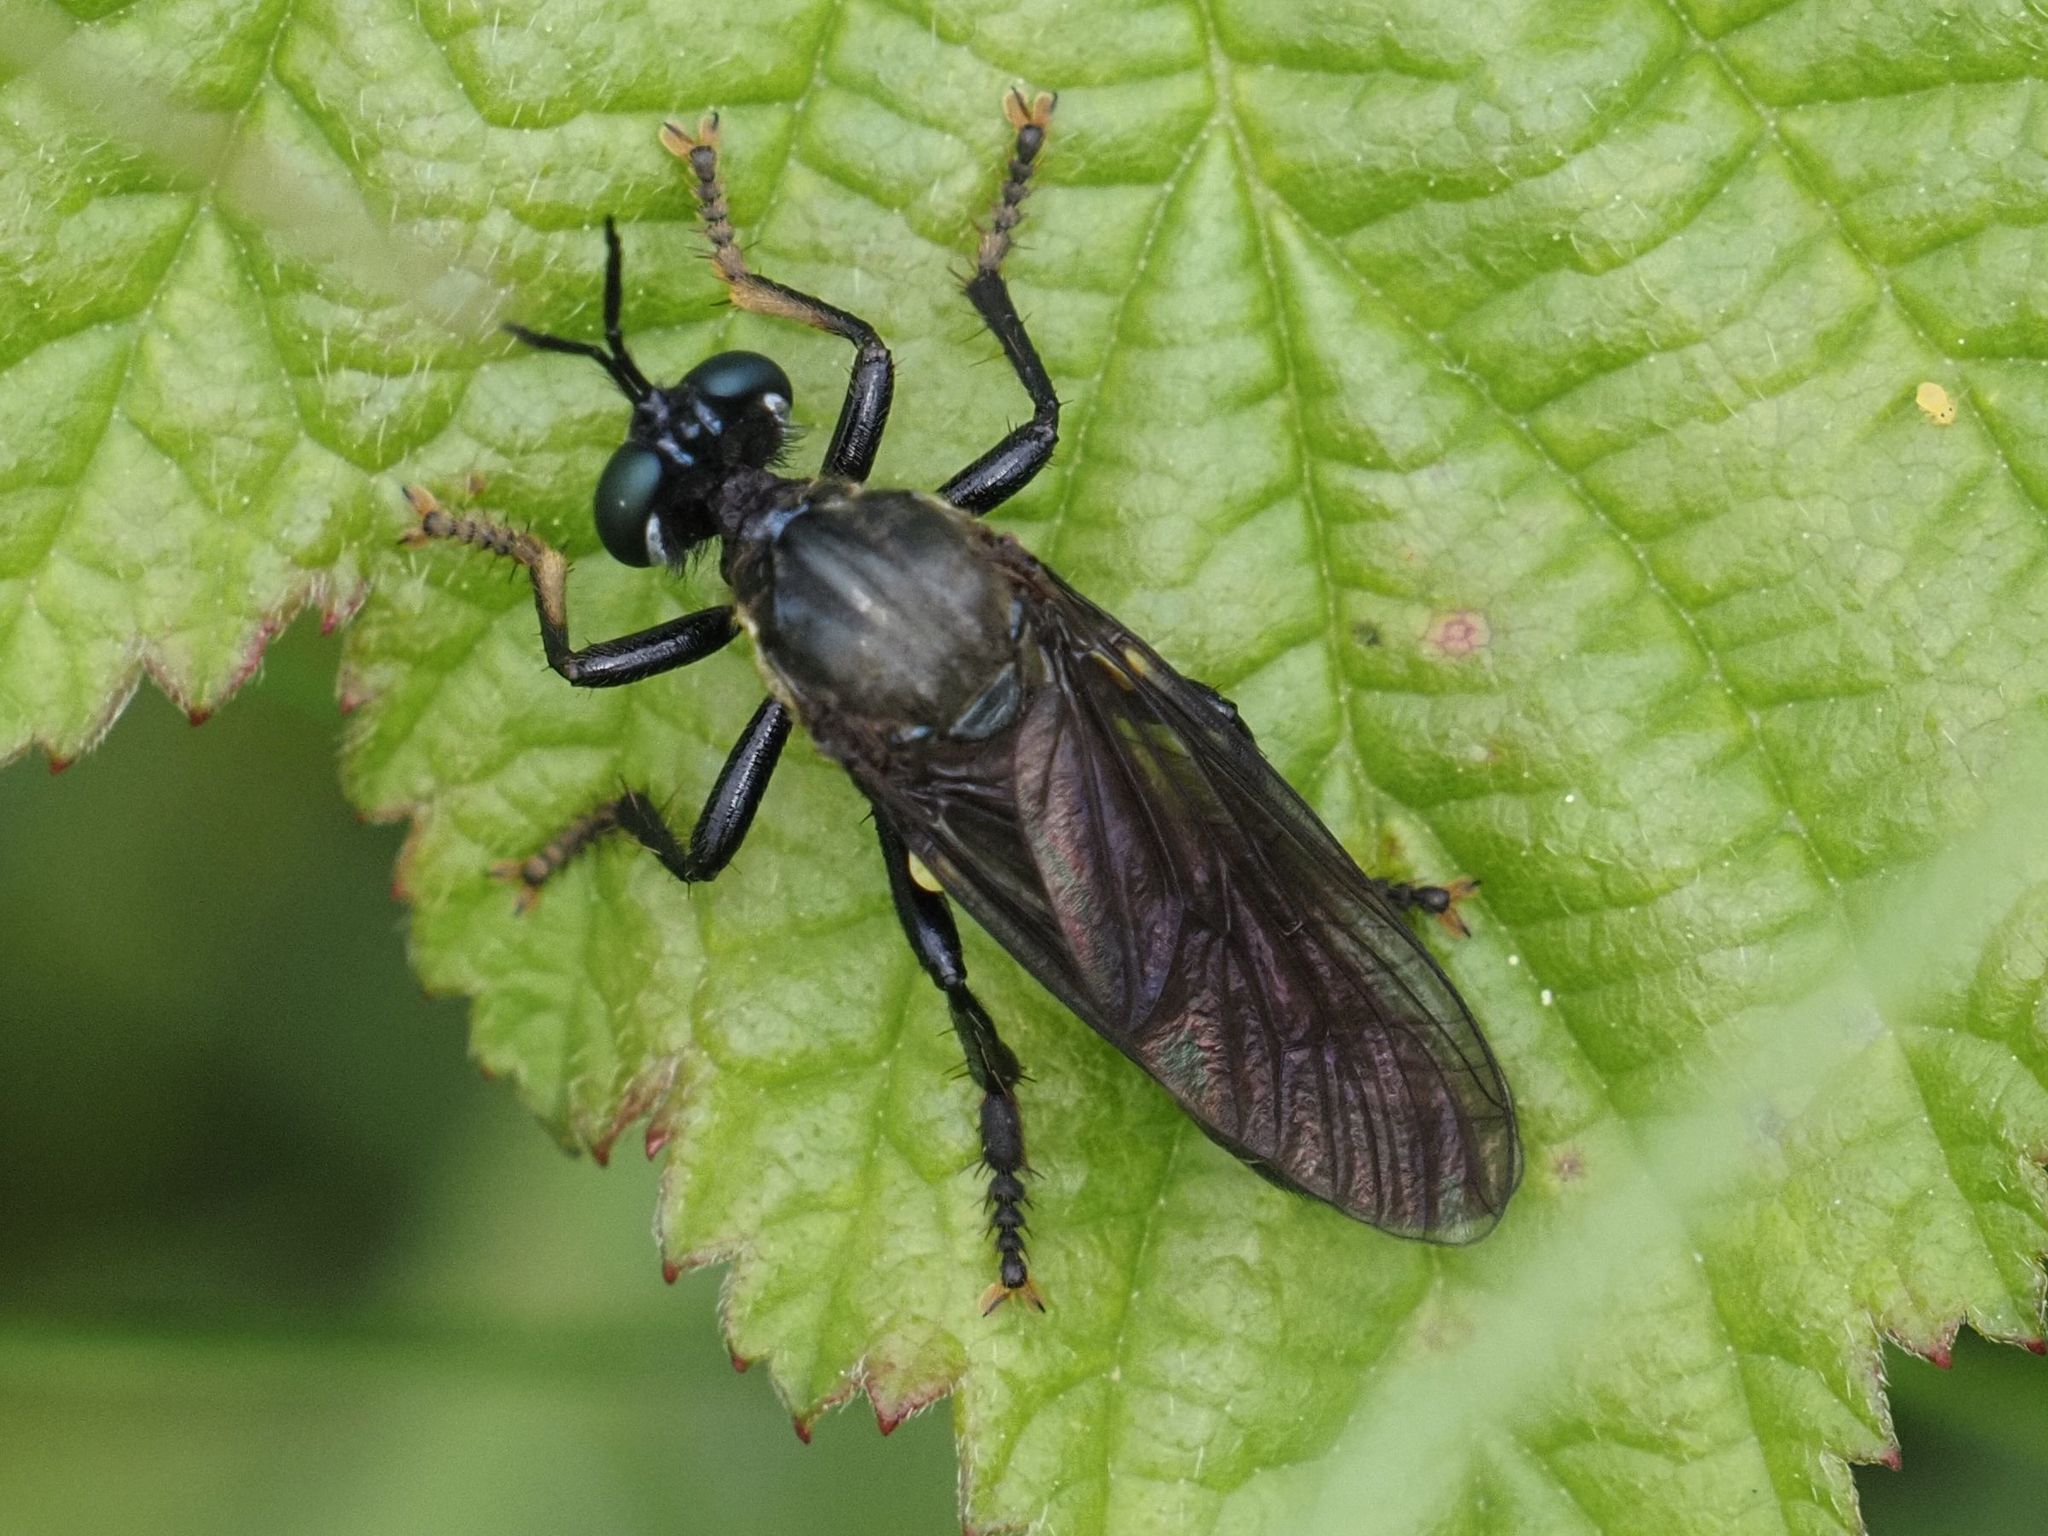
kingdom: Animalia
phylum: Arthropoda
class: Insecta
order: Diptera
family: Asilidae
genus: Dioctria
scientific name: Dioctria atricapilla
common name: Violet black-legged
